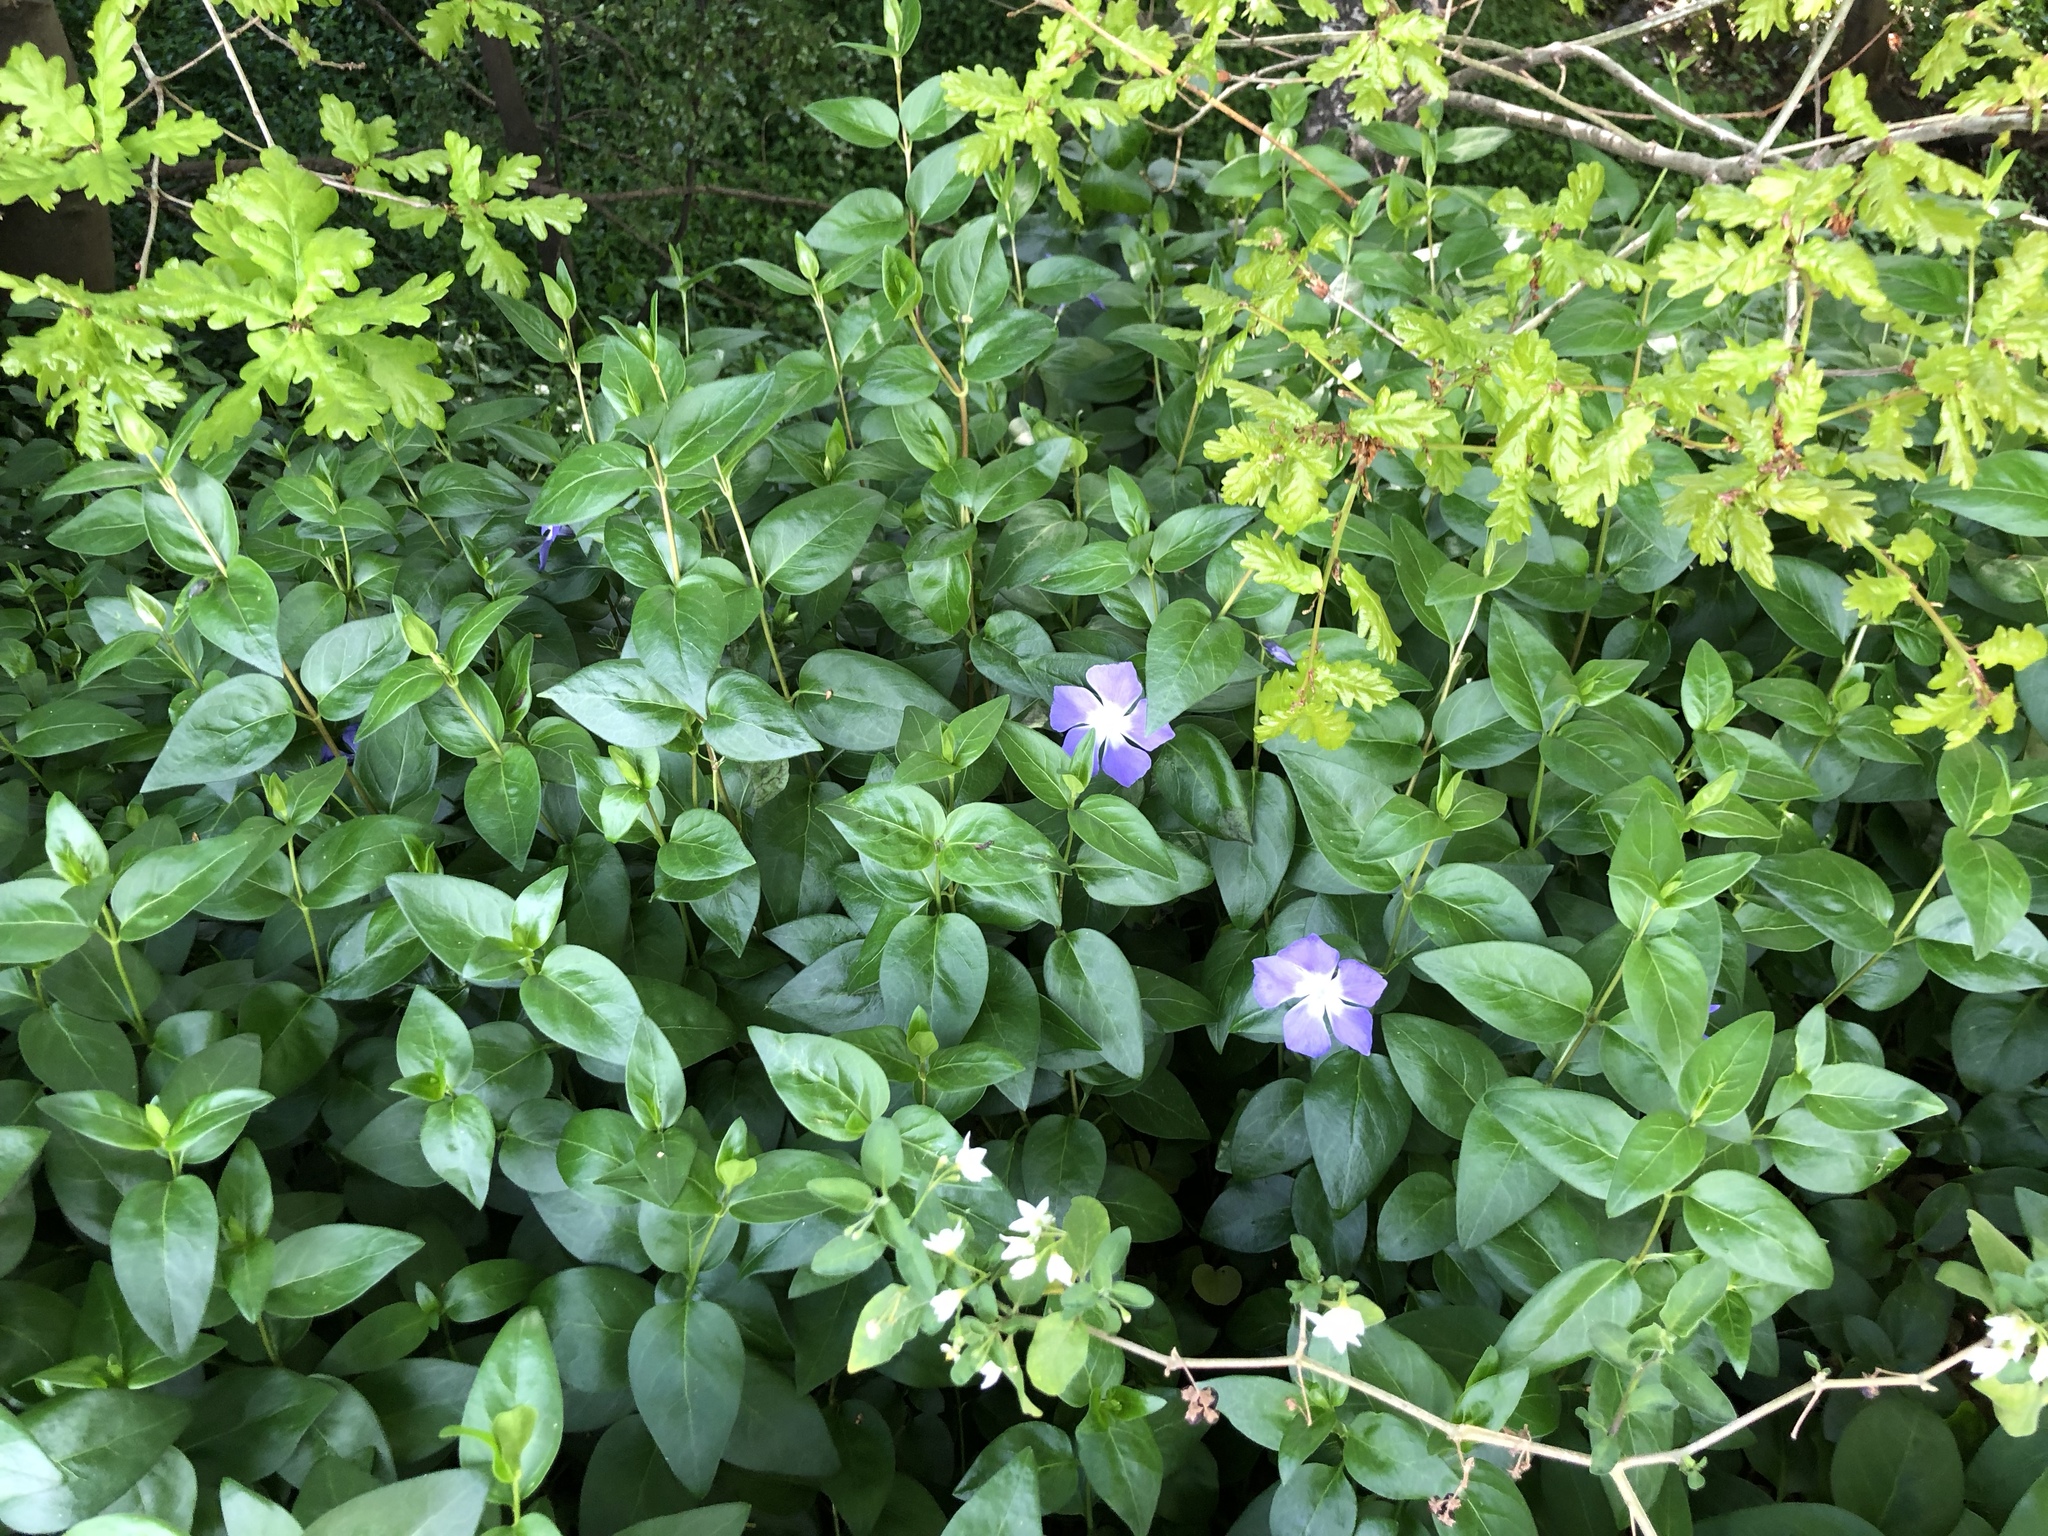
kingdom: Plantae
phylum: Tracheophyta
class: Magnoliopsida
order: Gentianales
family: Apocynaceae
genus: Vinca
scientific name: Vinca major
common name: Greater periwinkle
